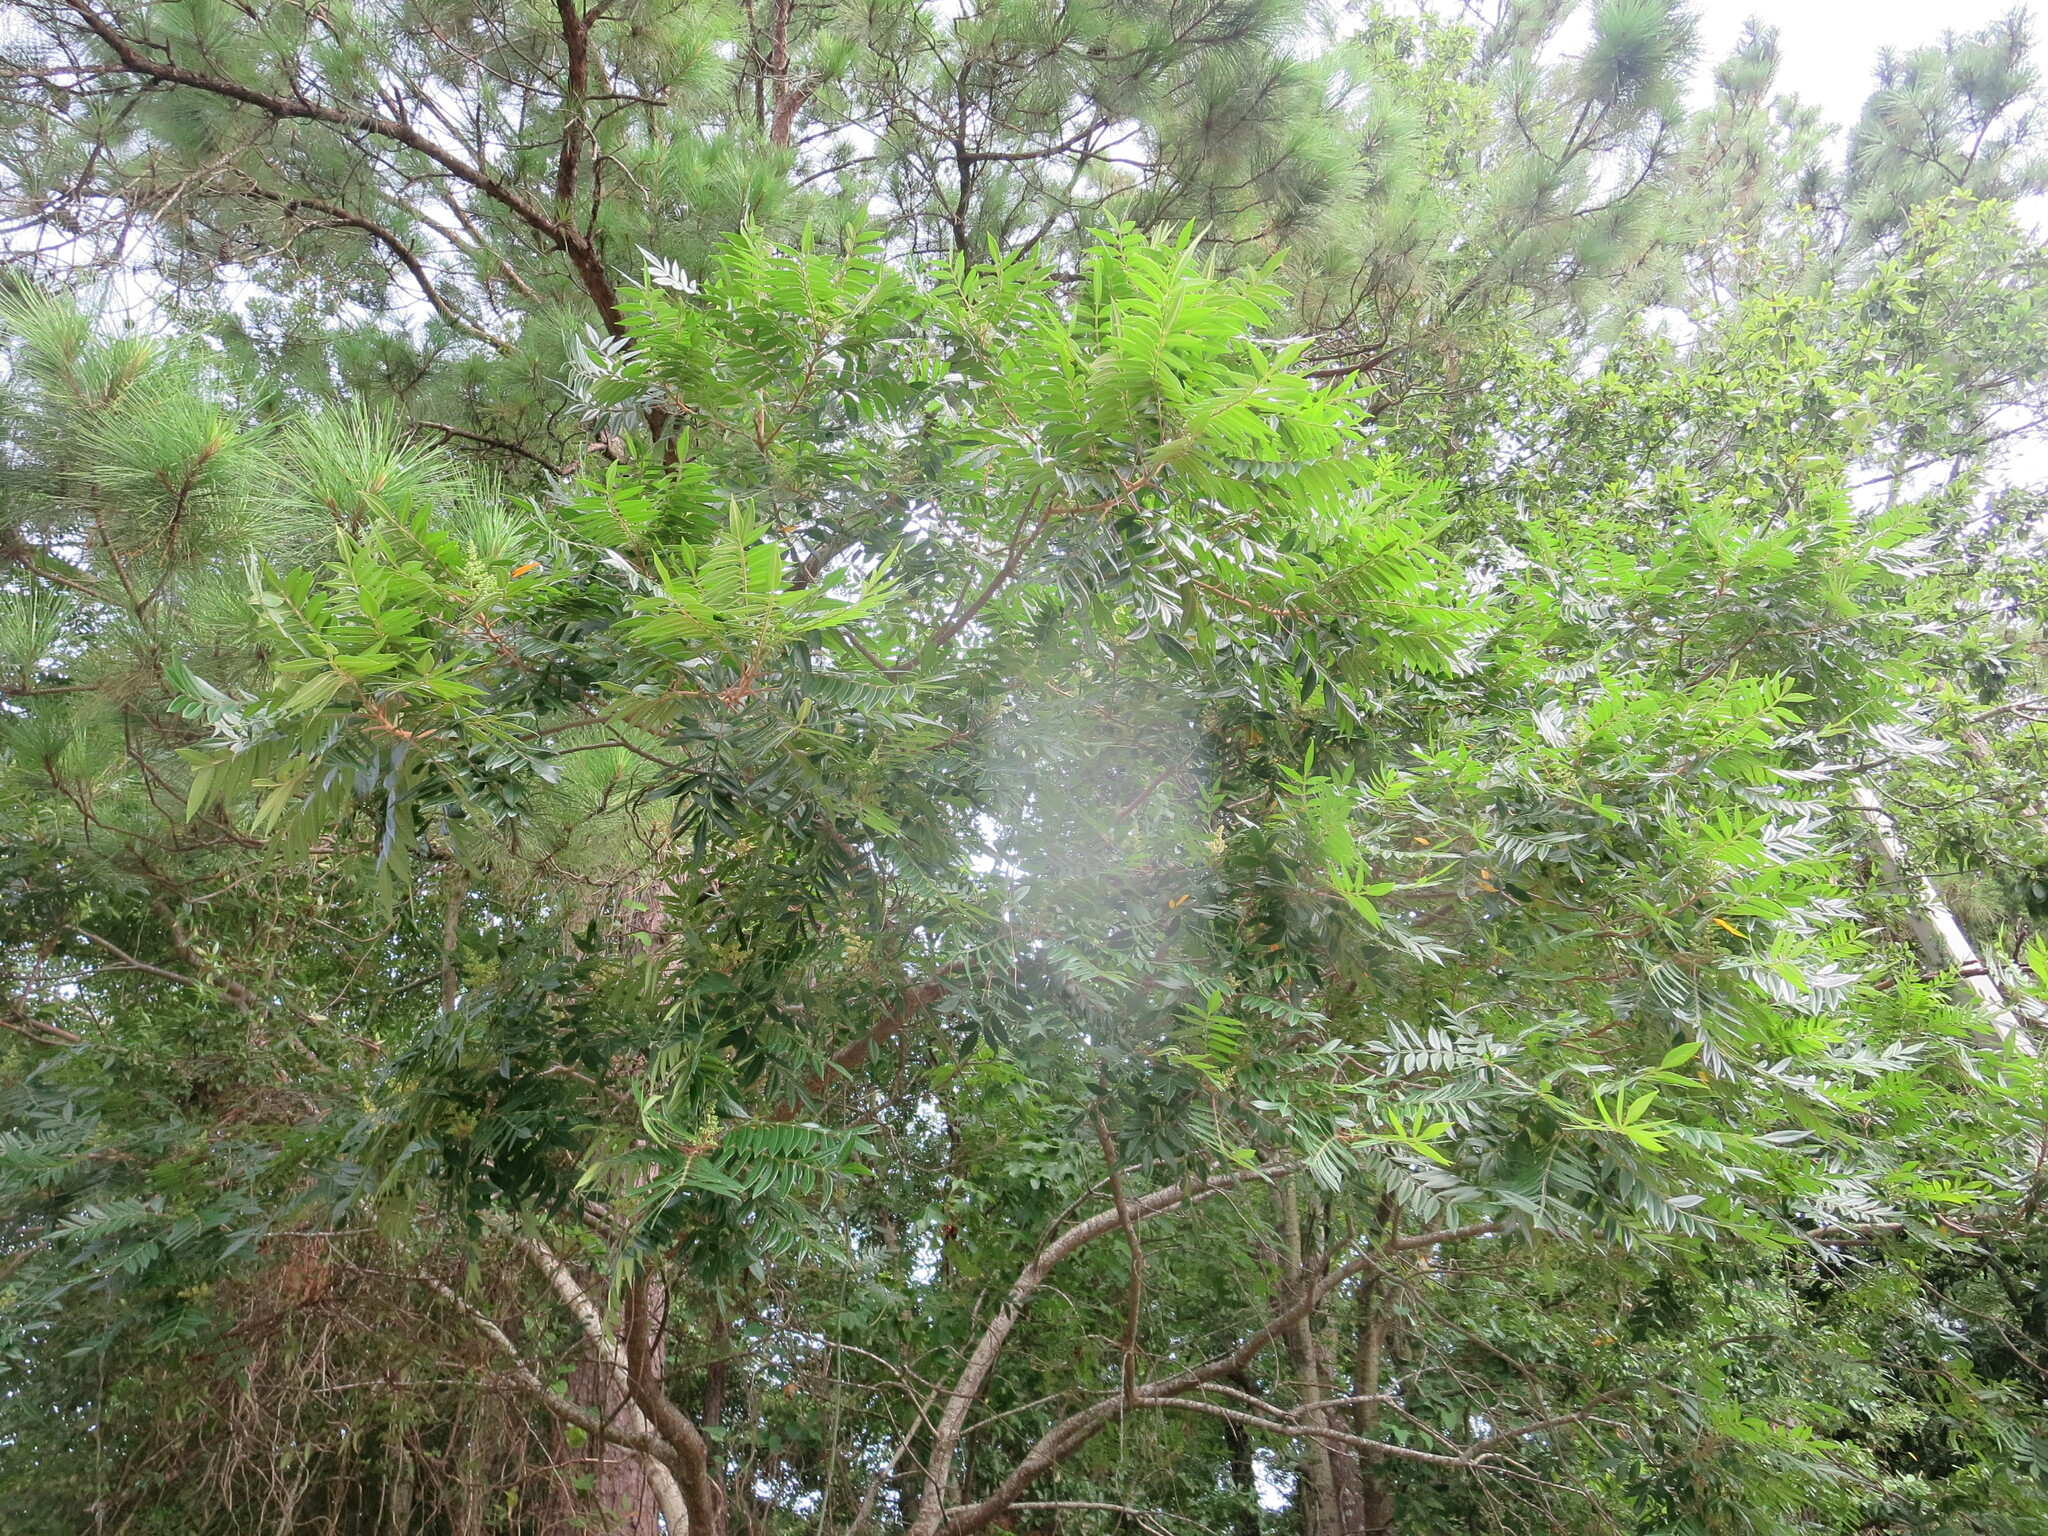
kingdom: Plantae
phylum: Tracheophyta
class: Magnoliopsida
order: Sapindales
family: Anacardiaceae
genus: Rhus
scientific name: Rhus copallina
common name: Shining sumac
